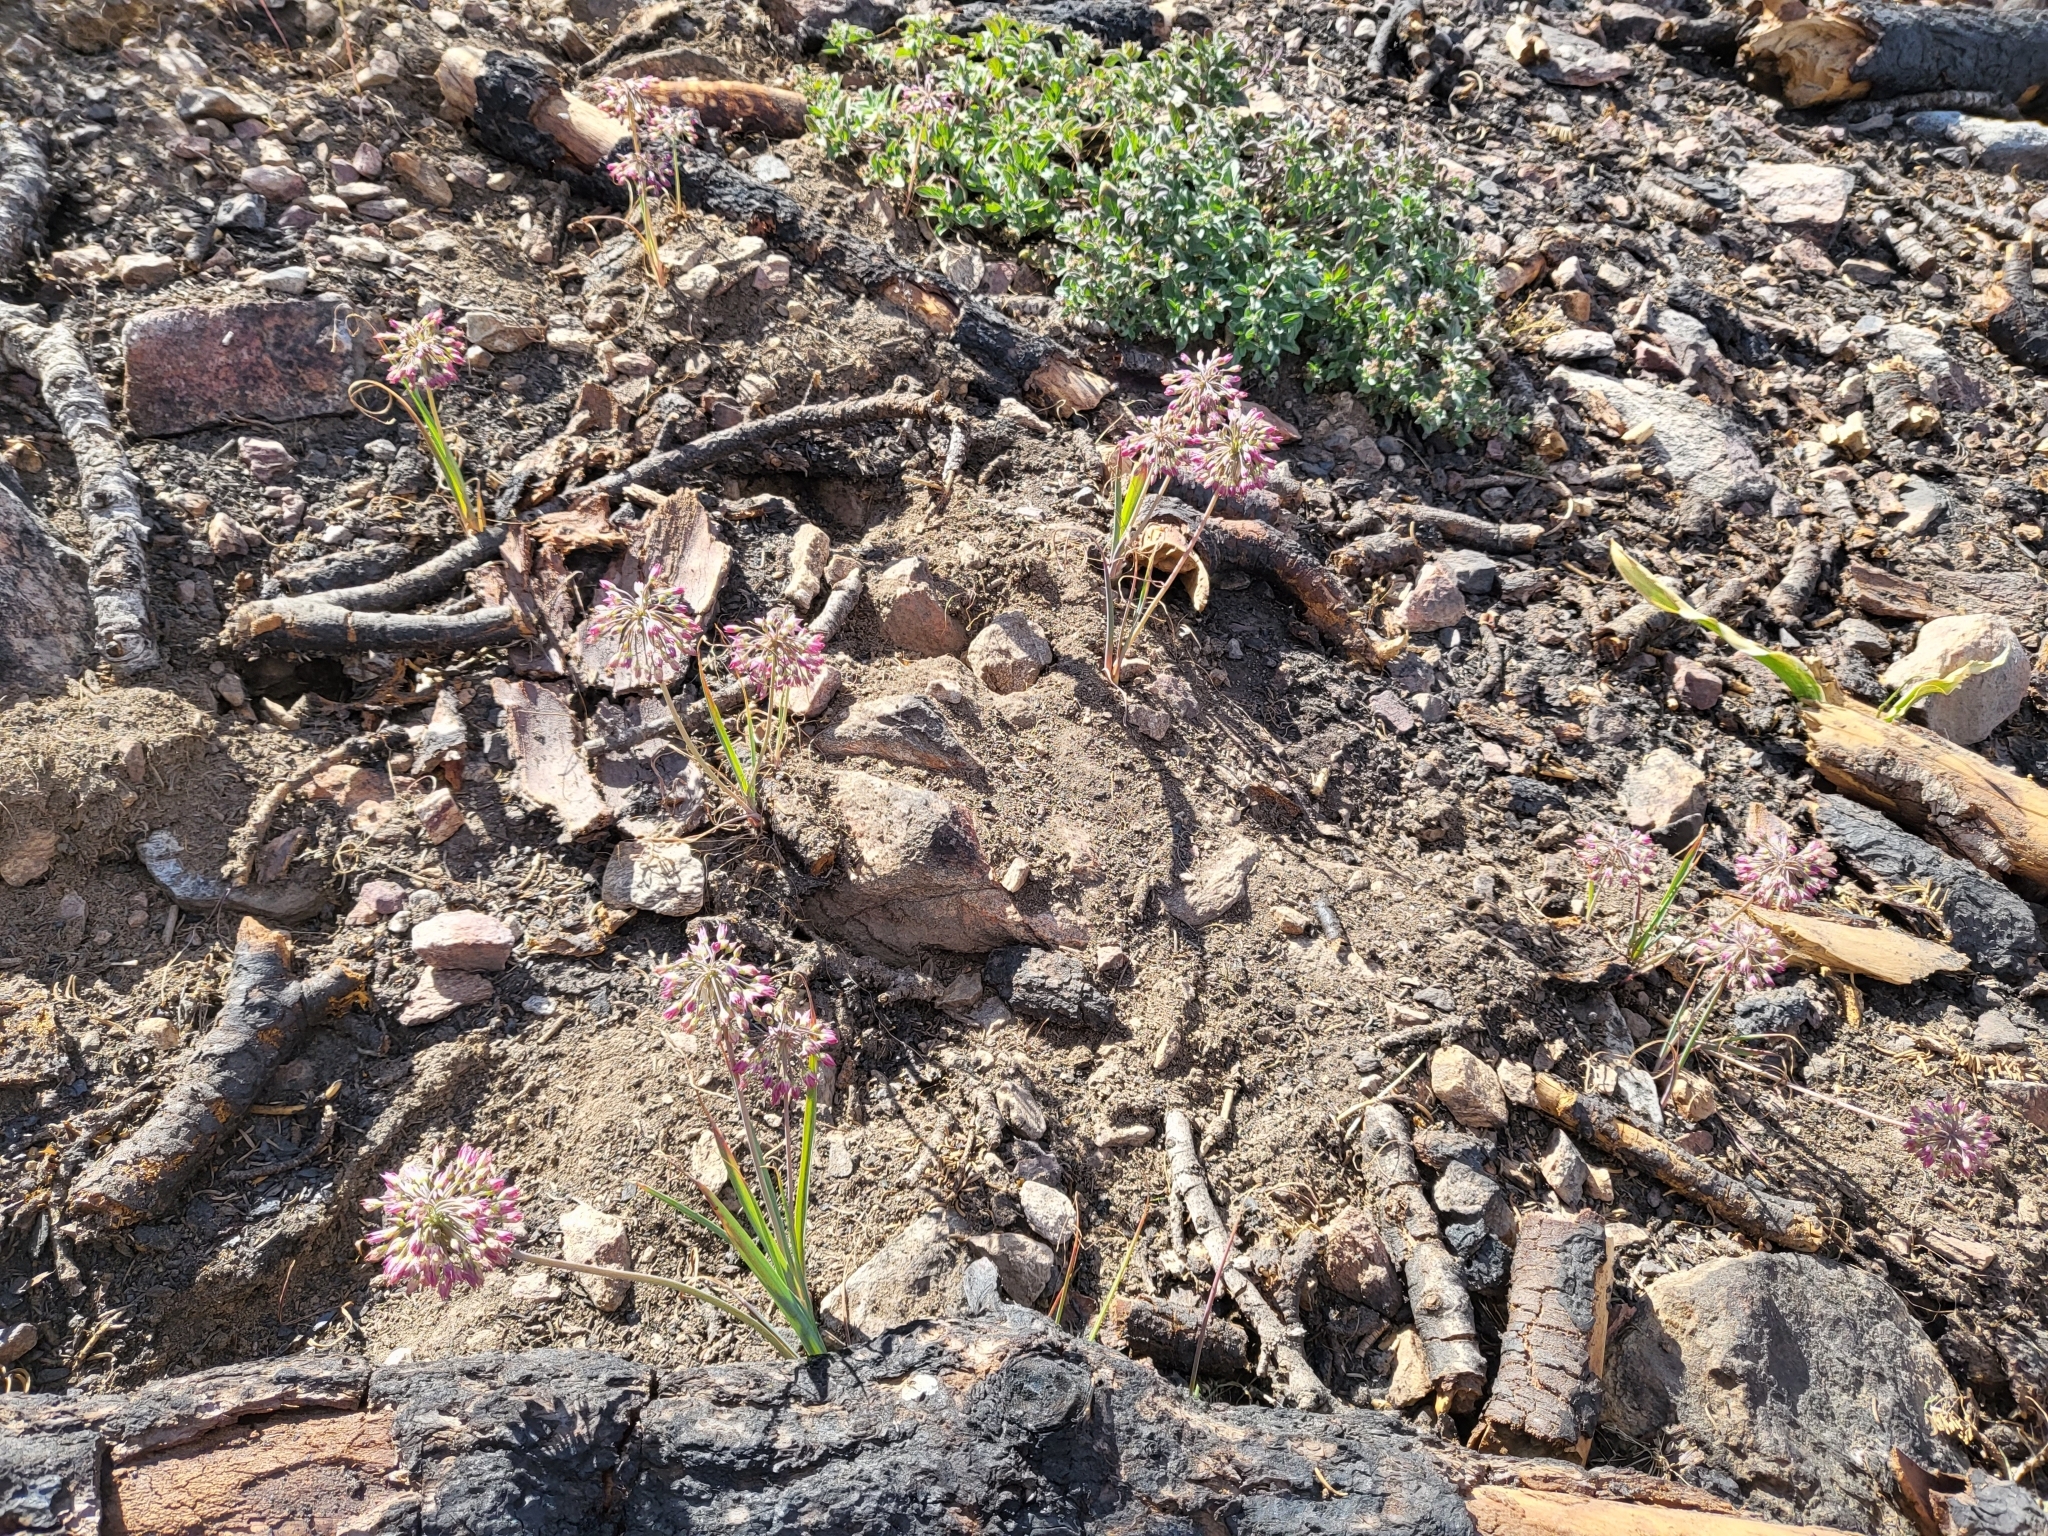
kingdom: Plantae
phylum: Tracheophyta
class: Liliopsida
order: Asparagales
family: Amaryllidaceae
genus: Allium
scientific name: Allium campanulatum
